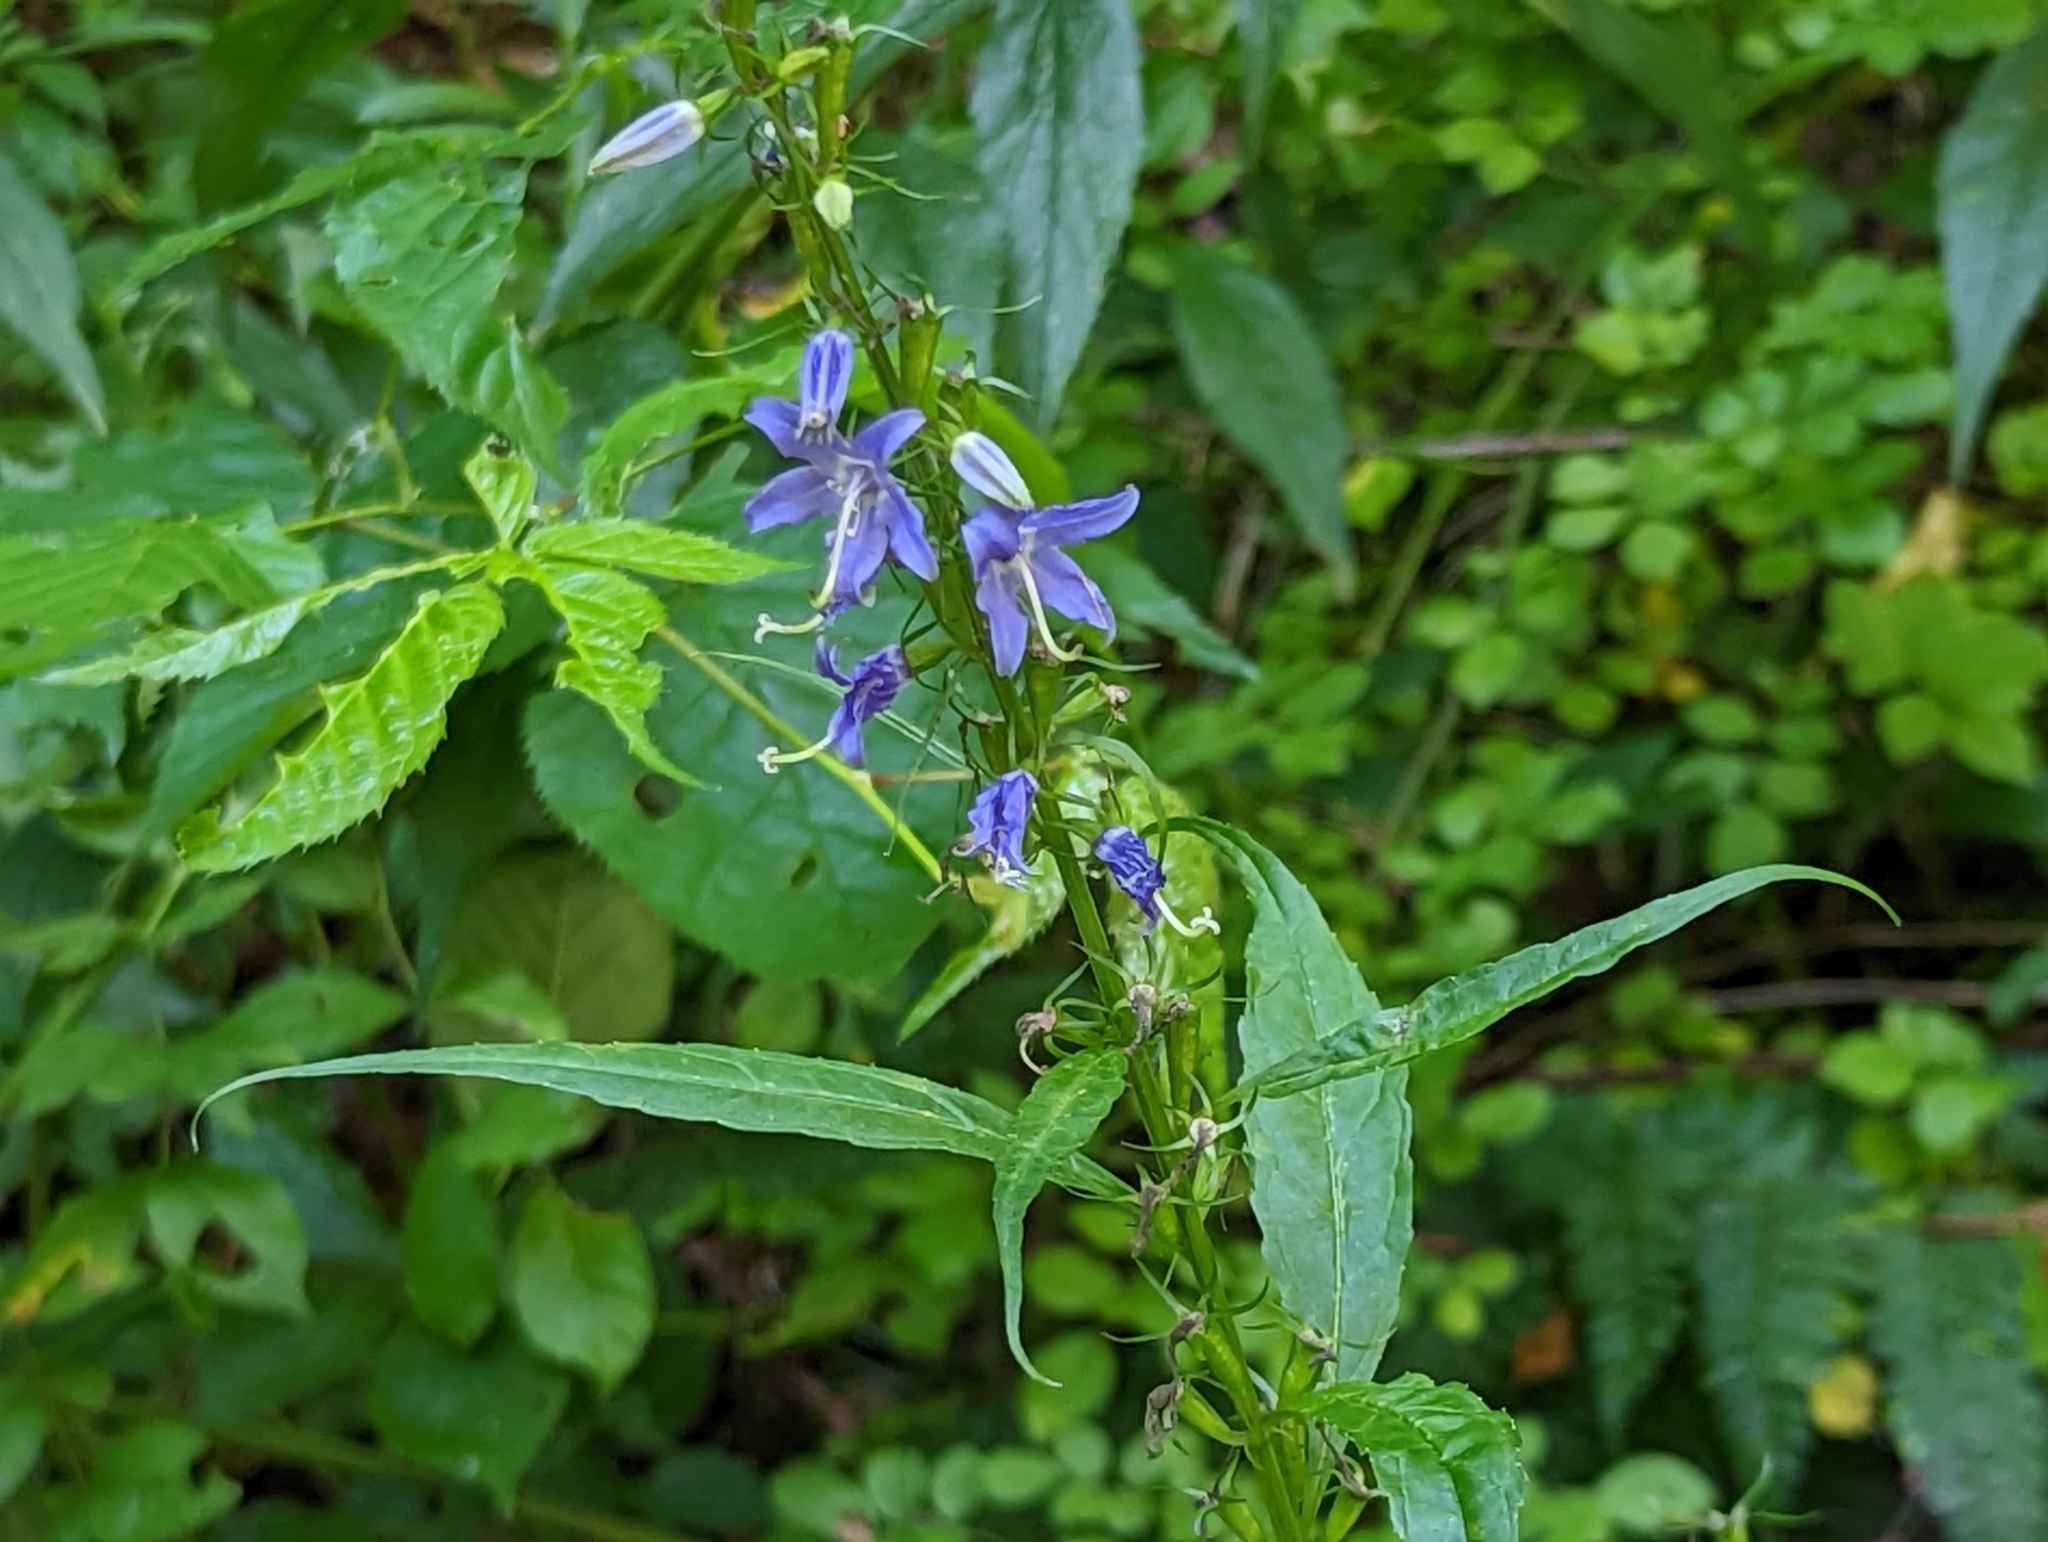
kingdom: Plantae
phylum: Tracheophyta
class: Magnoliopsida
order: Asterales
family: Campanulaceae
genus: Campanulastrum
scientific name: Campanulastrum americanum
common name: American bellflower
